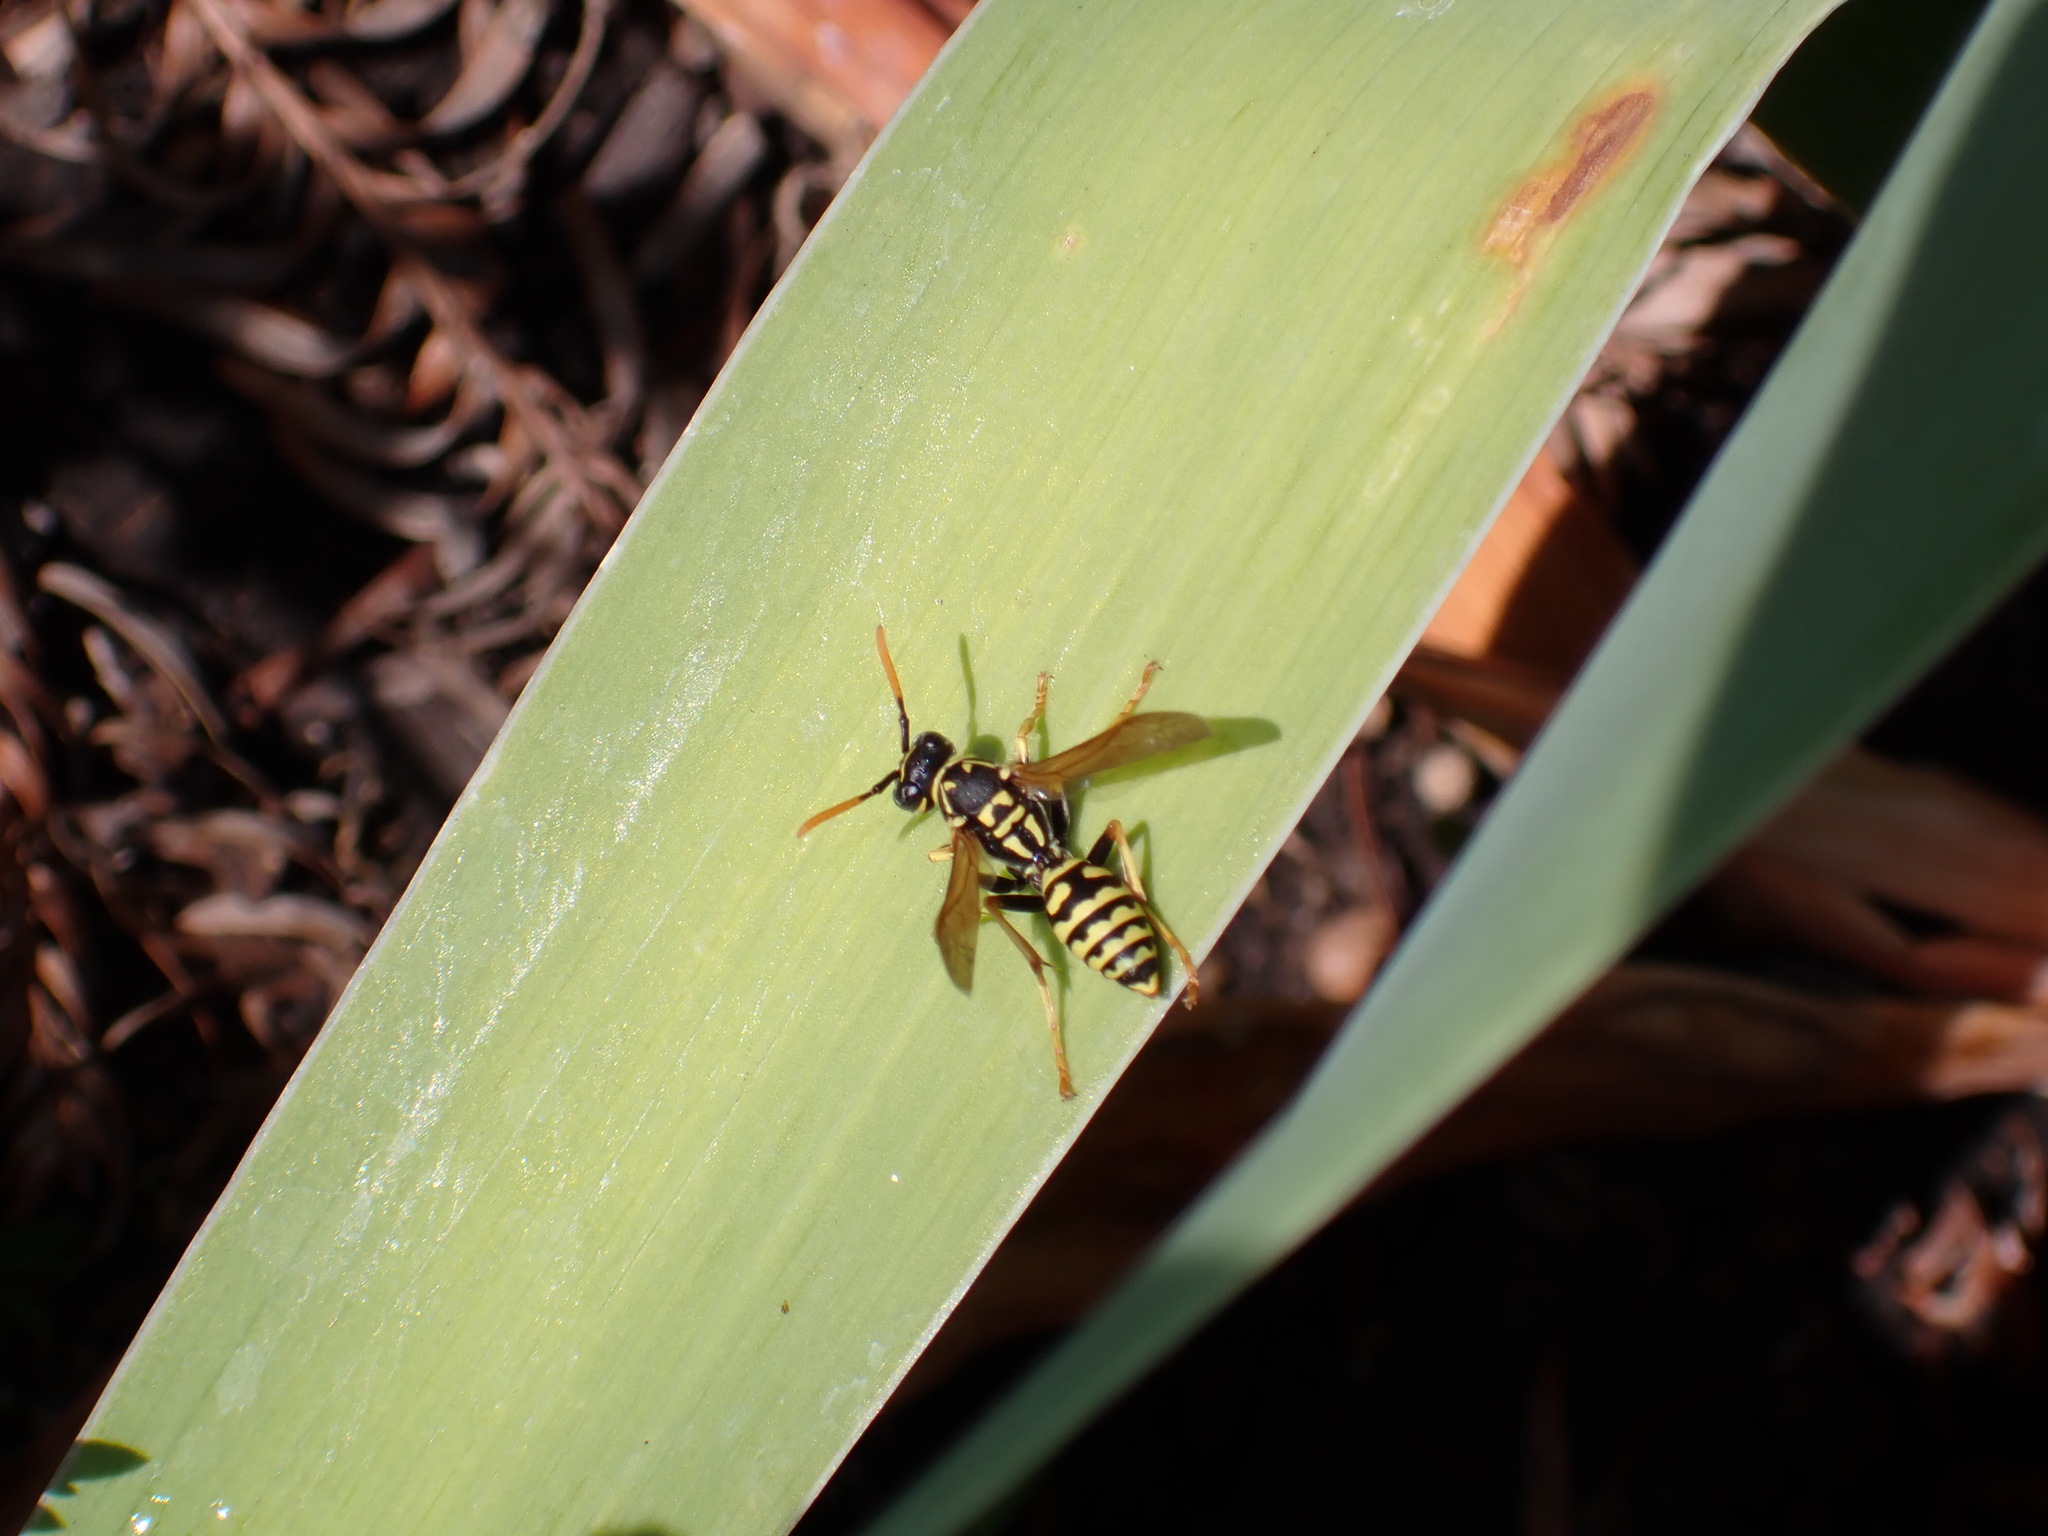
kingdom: Animalia
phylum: Arthropoda
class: Insecta
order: Hymenoptera
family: Eumenidae
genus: Polistes
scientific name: Polistes dominula
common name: Paper wasp
